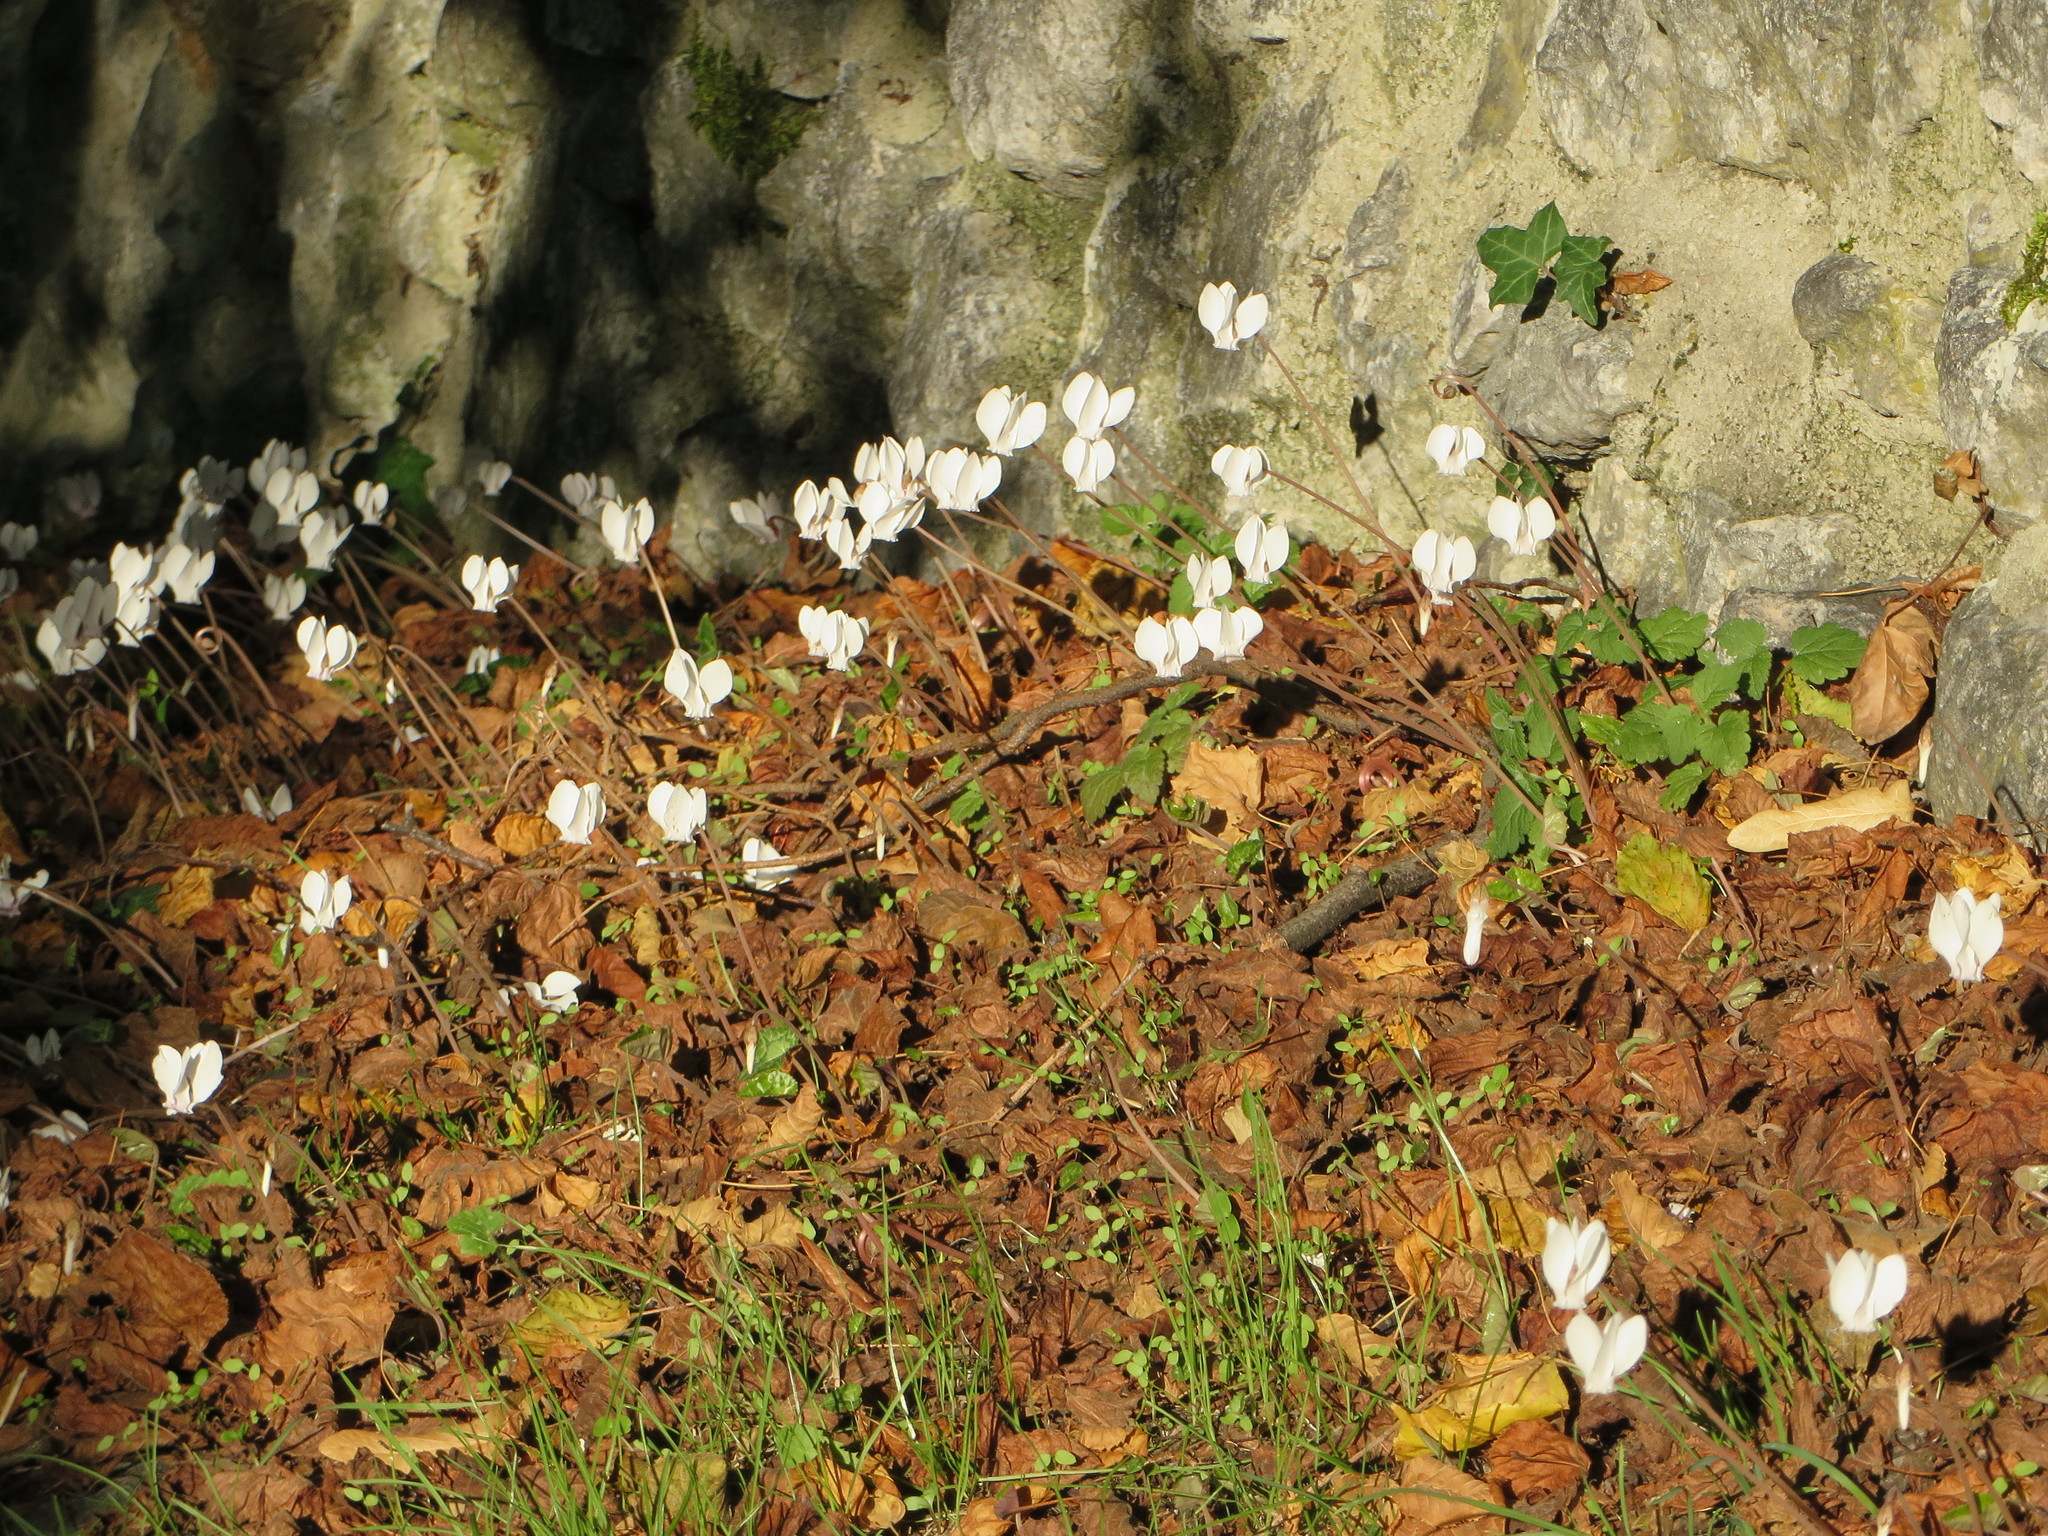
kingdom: Plantae
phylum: Tracheophyta
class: Magnoliopsida
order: Ericales
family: Primulaceae
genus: Cyclamen
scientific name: Cyclamen hederifolium
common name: Sowbread
